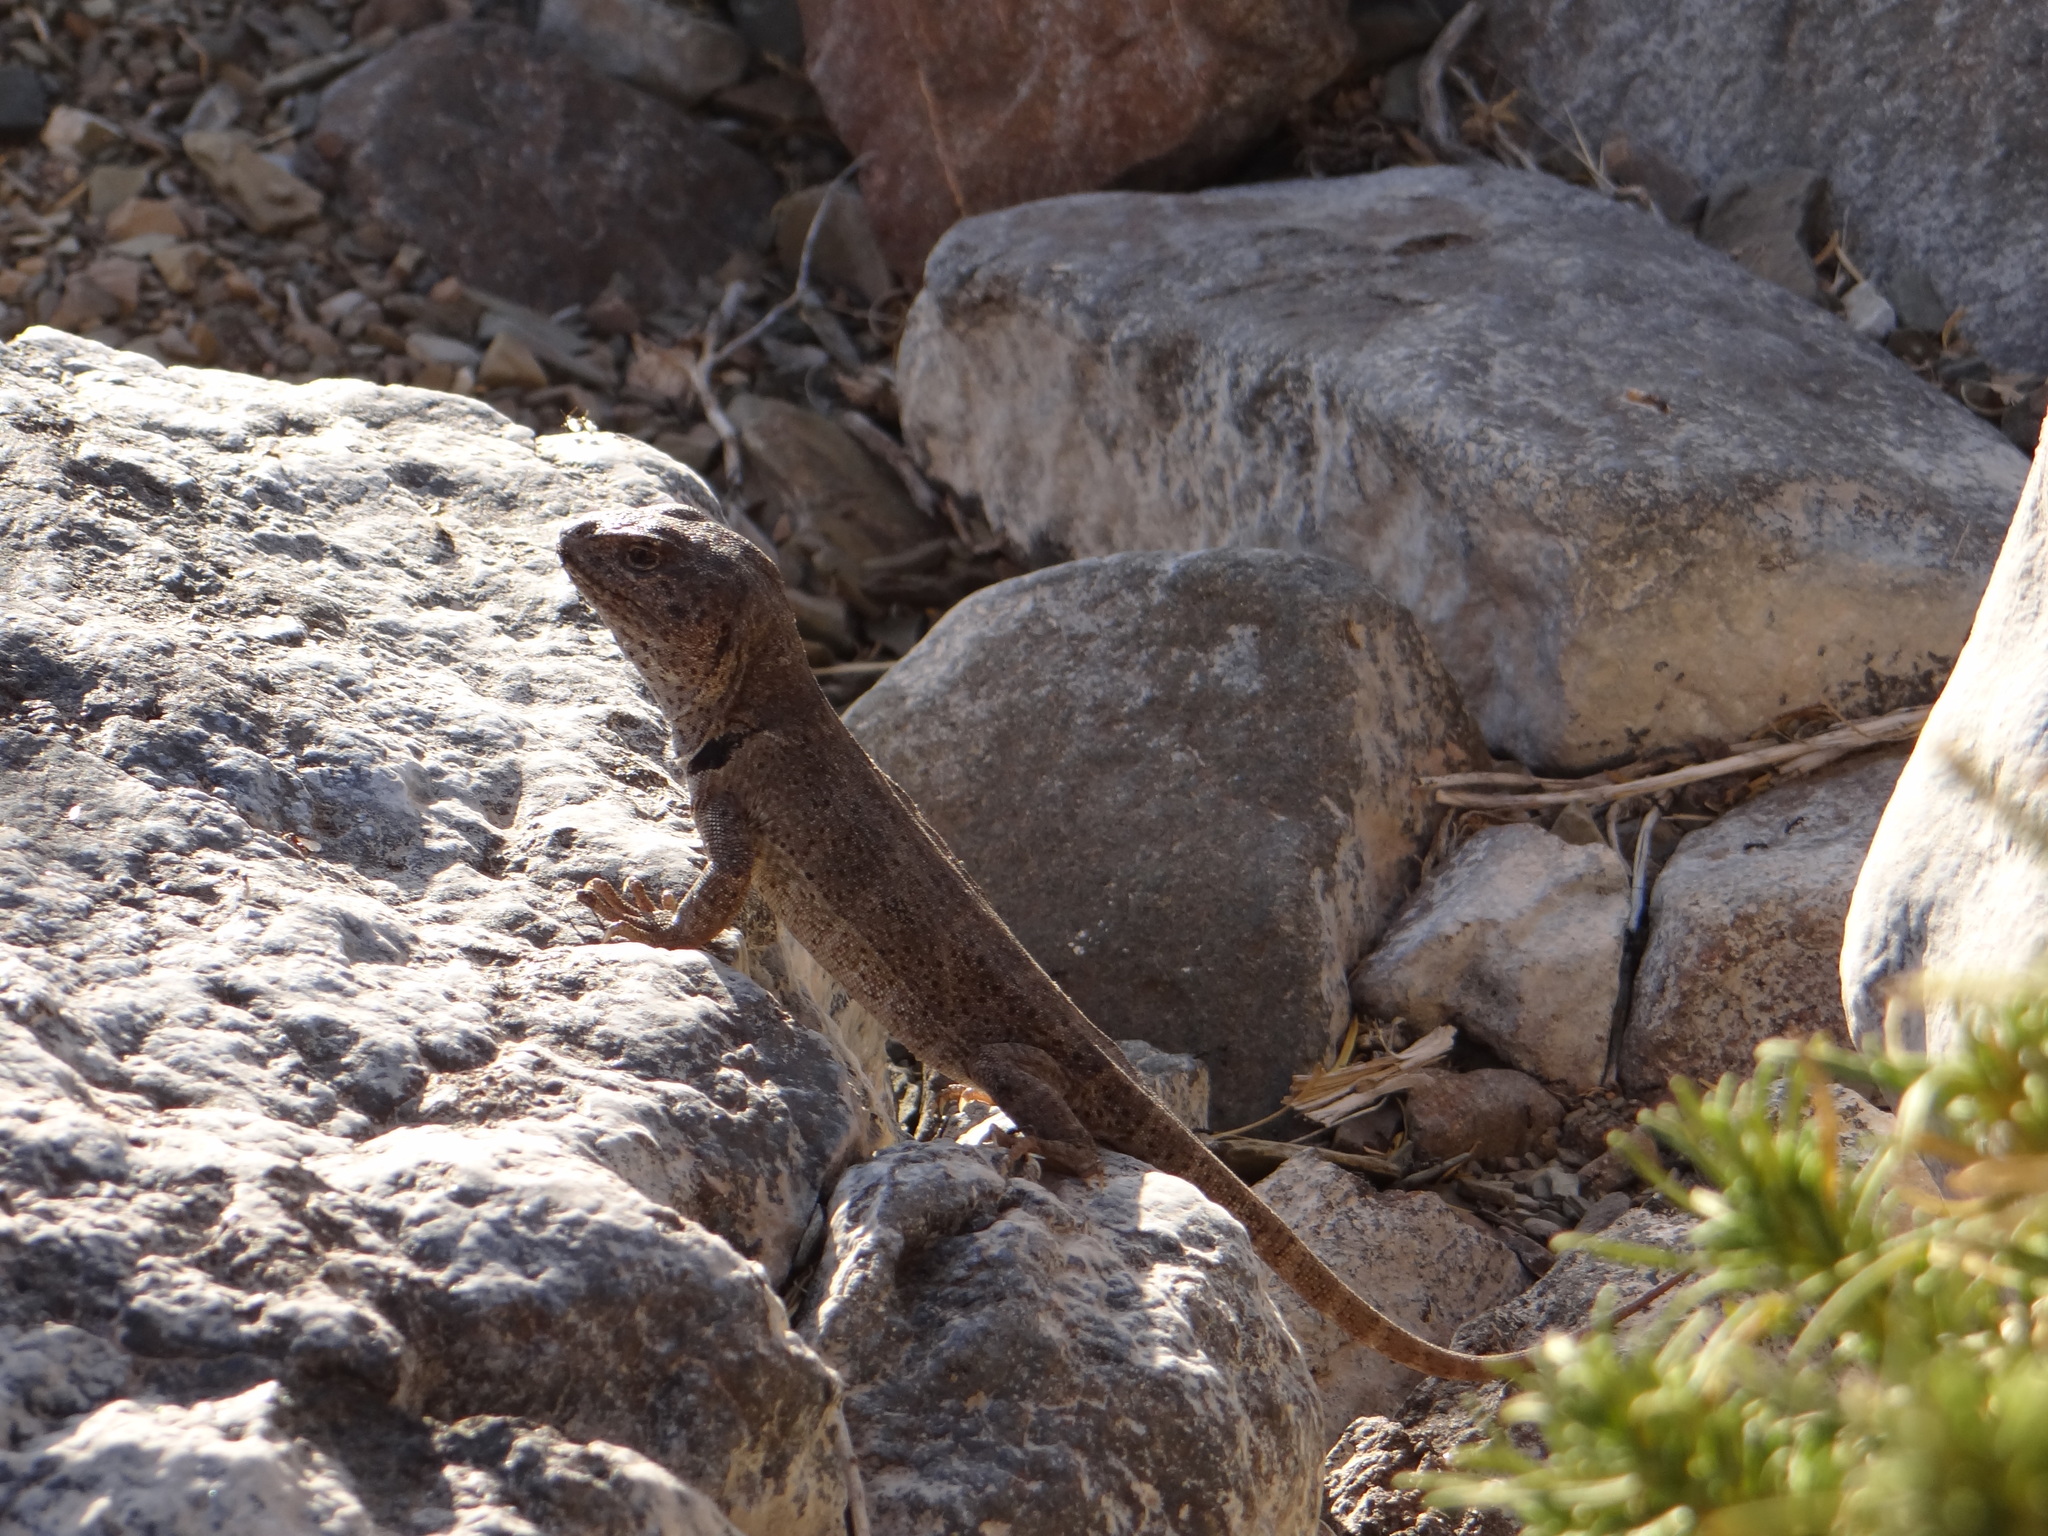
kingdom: Animalia
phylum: Chordata
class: Squamata
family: Leiosauridae
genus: Pristidactylus
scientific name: Pristidactylus scapulatus
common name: Burmeister's anole
